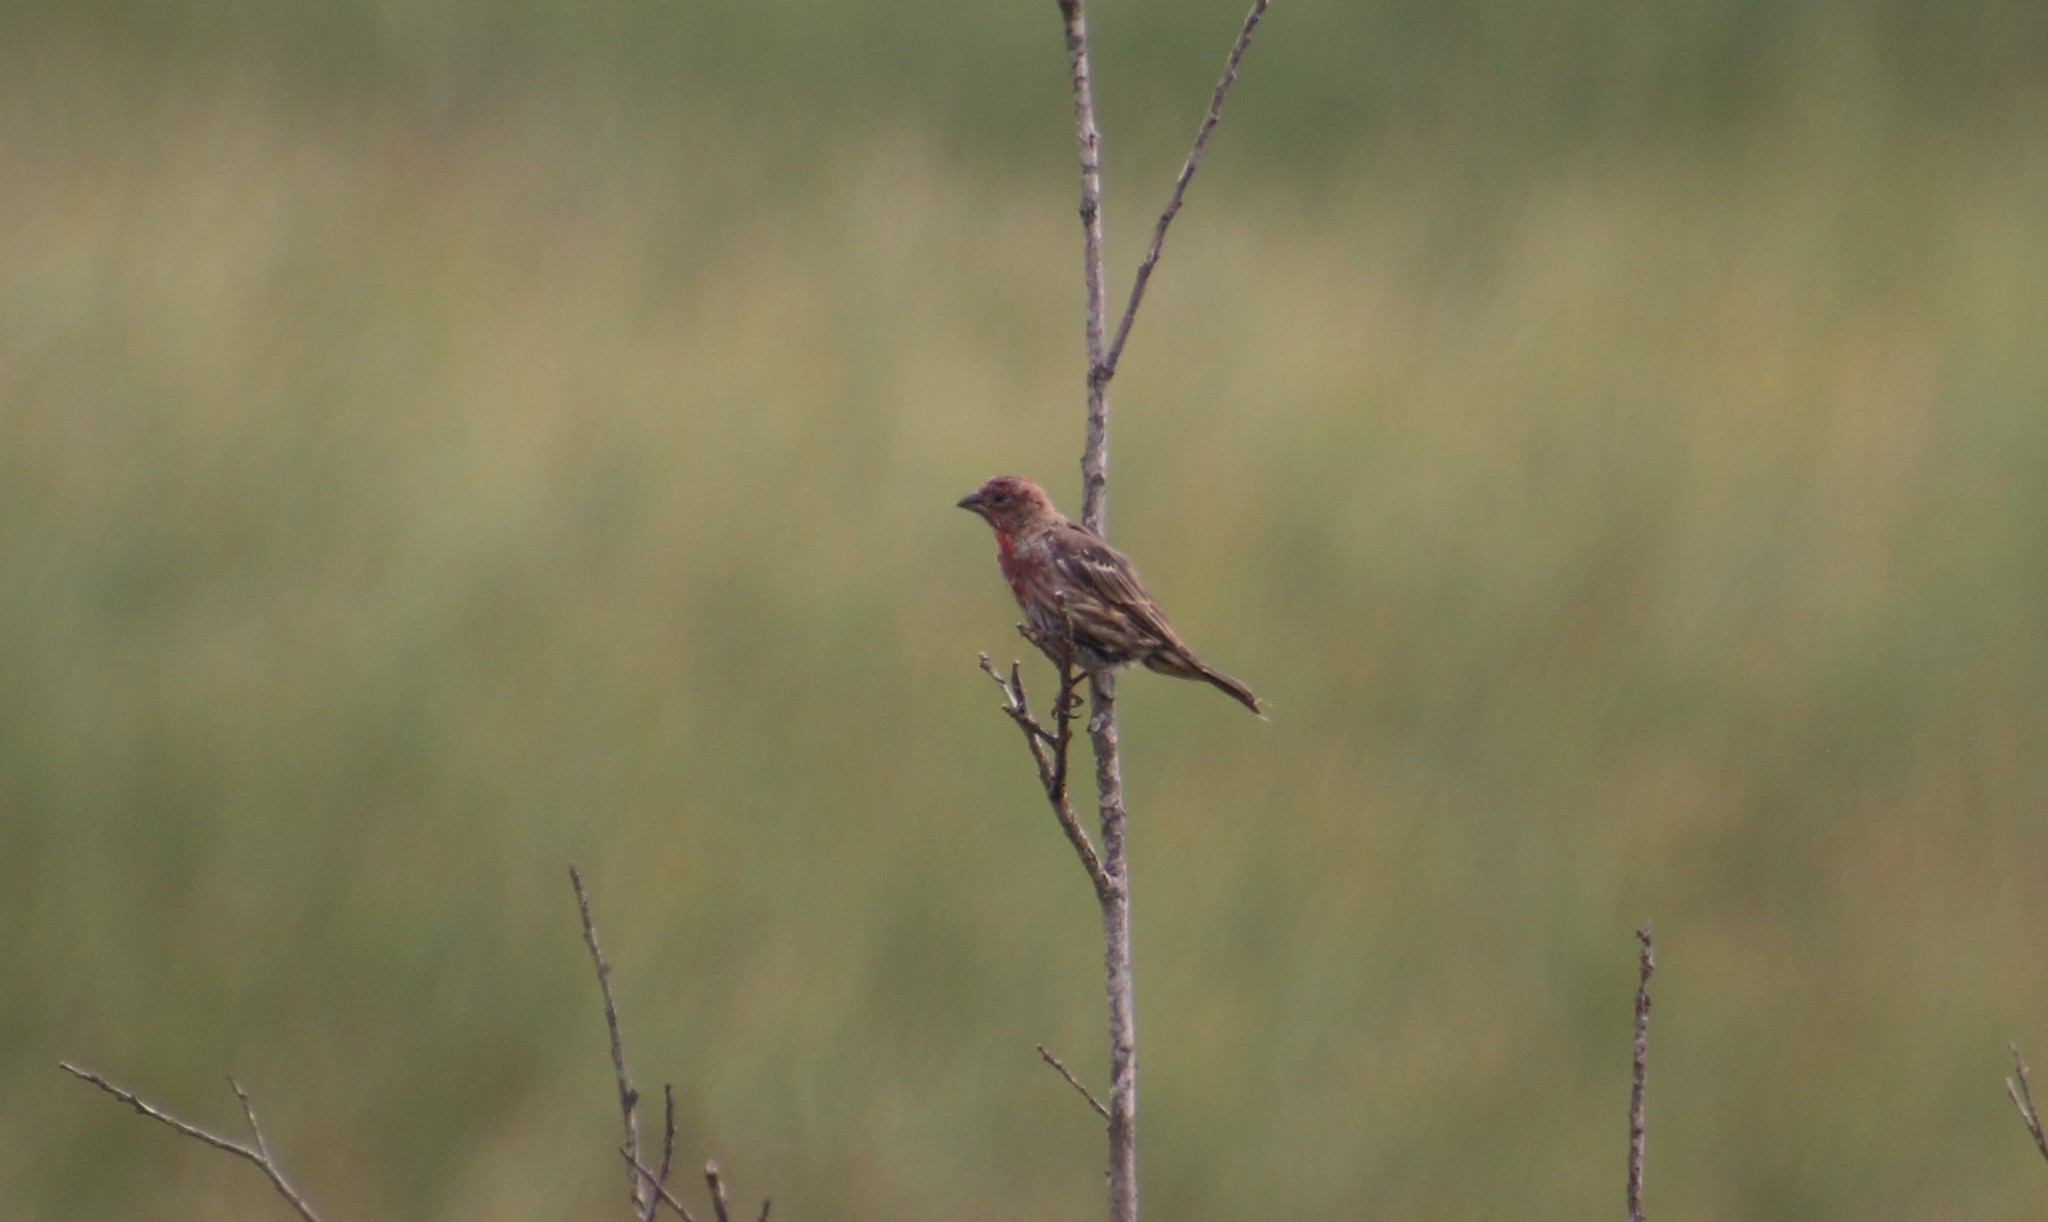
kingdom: Animalia
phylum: Chordata
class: Aves
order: Passeriformes
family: Fringillidae
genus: Haemorhous
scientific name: Haemorhous mexicanus
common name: House finch
